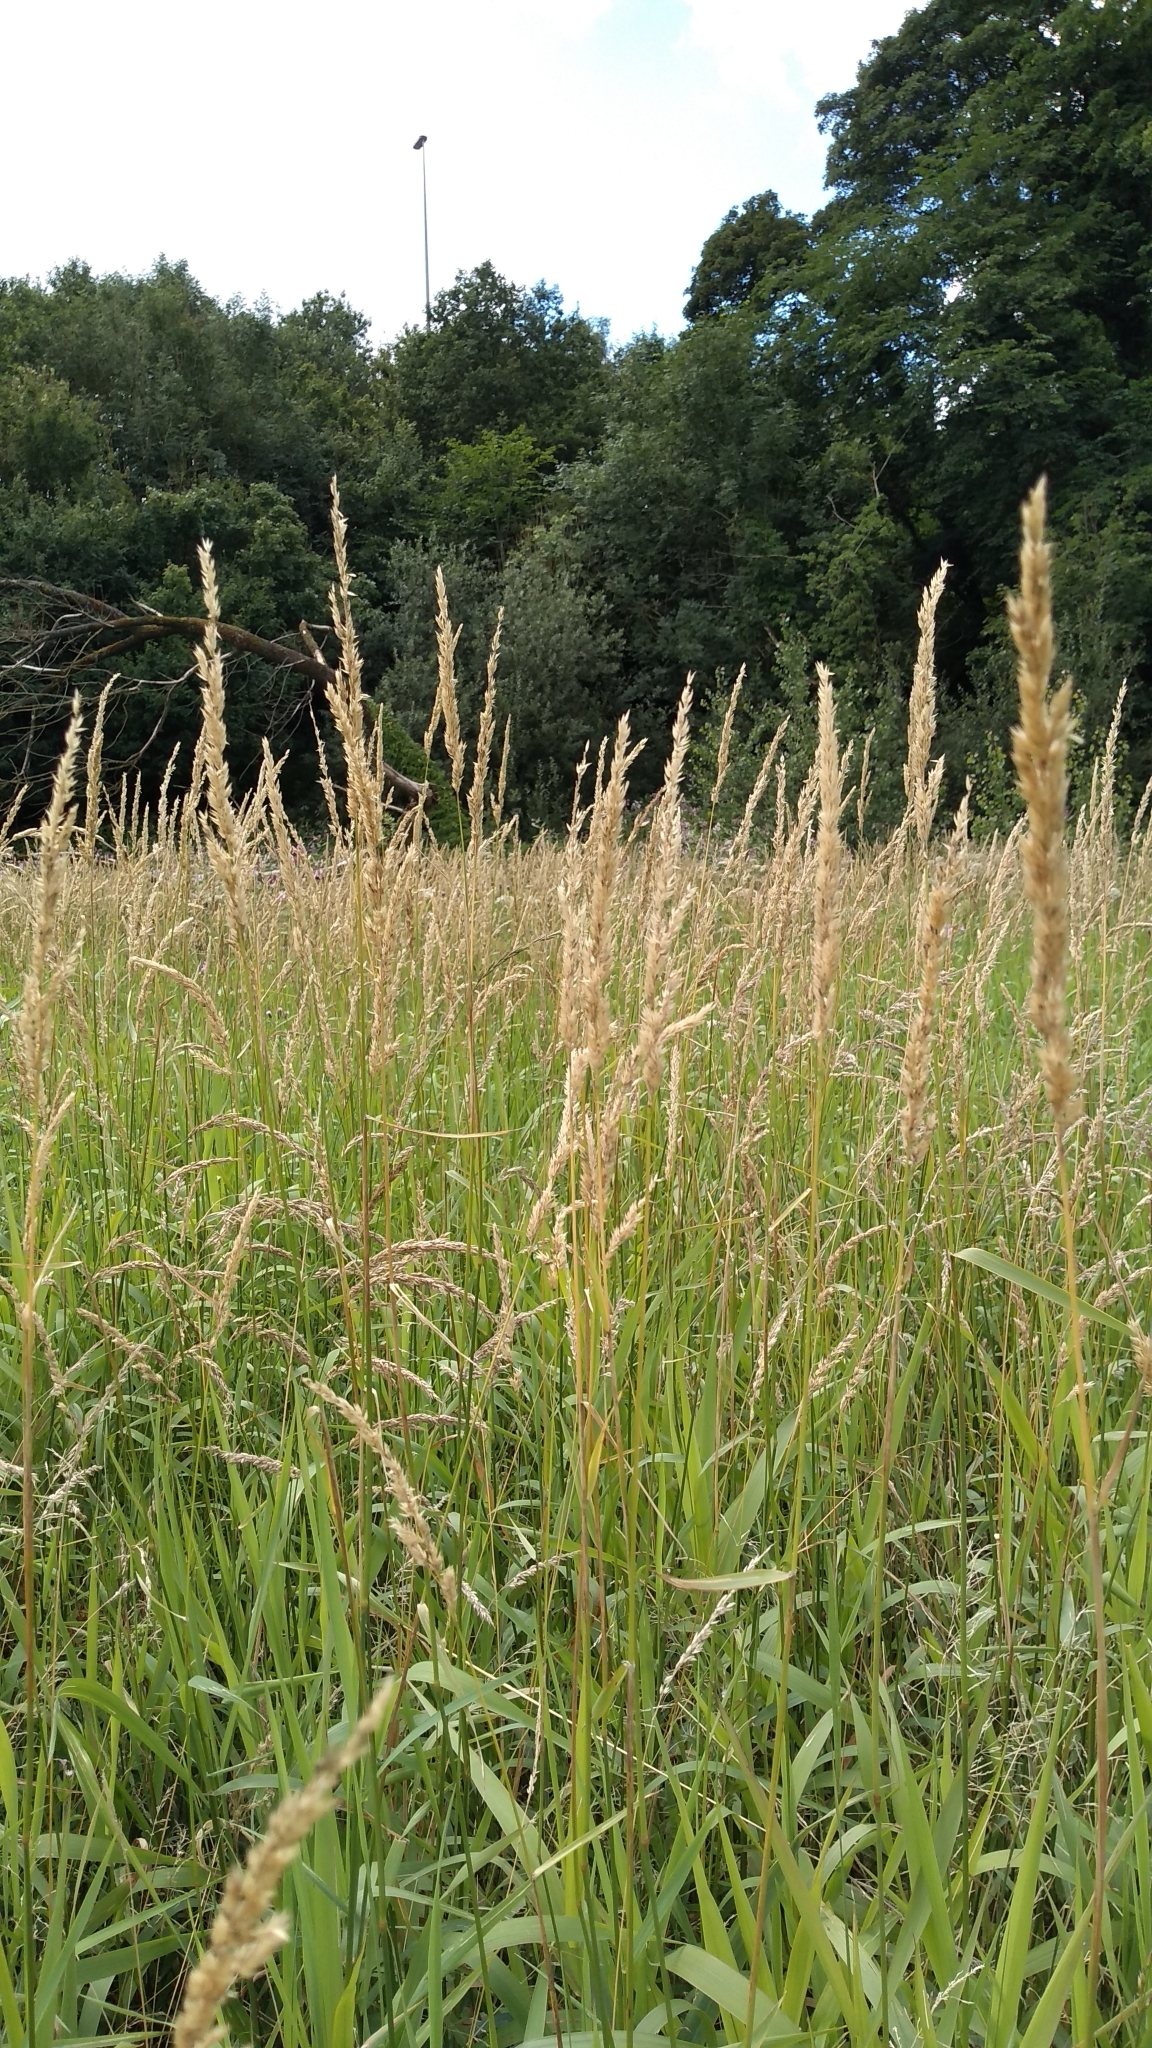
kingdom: Plantae
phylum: Tracheophyta
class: Liliopsida
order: Poales
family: Poaceae
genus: Phalaris
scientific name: Phalaris arundinacea
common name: Reed canary-grass
